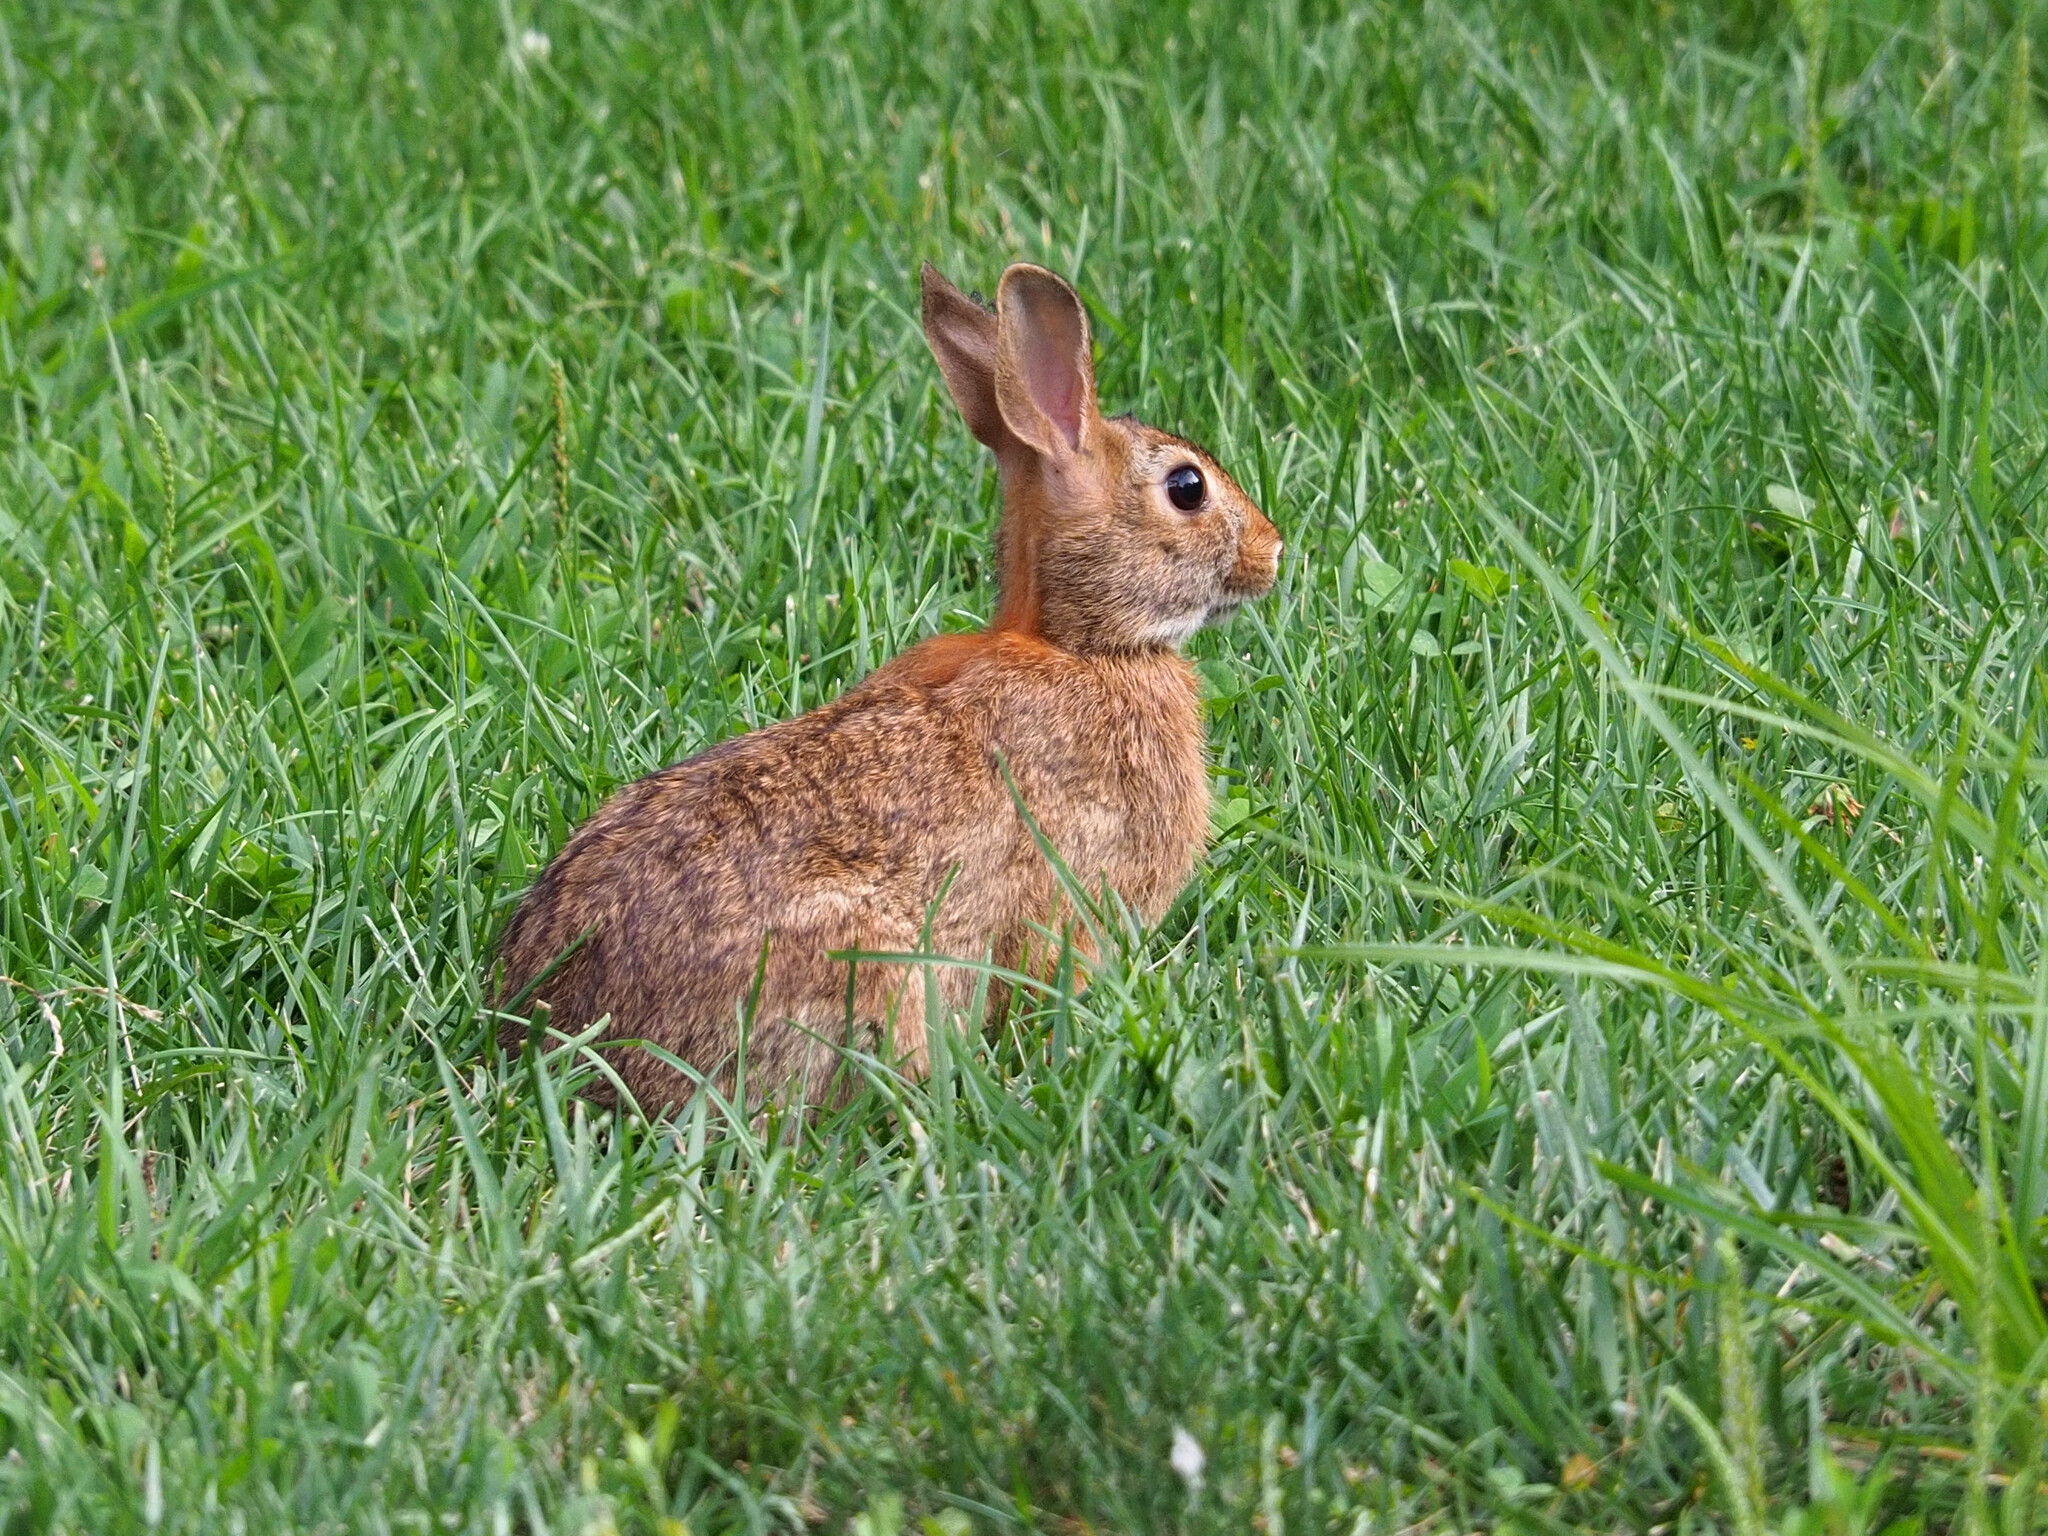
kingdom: Animalia
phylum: Chordata
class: Mammalia
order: Lagomorpha
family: Leporidae
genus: Sylvilagus
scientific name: Sylvilagus floridanus
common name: Eastern cottontail
